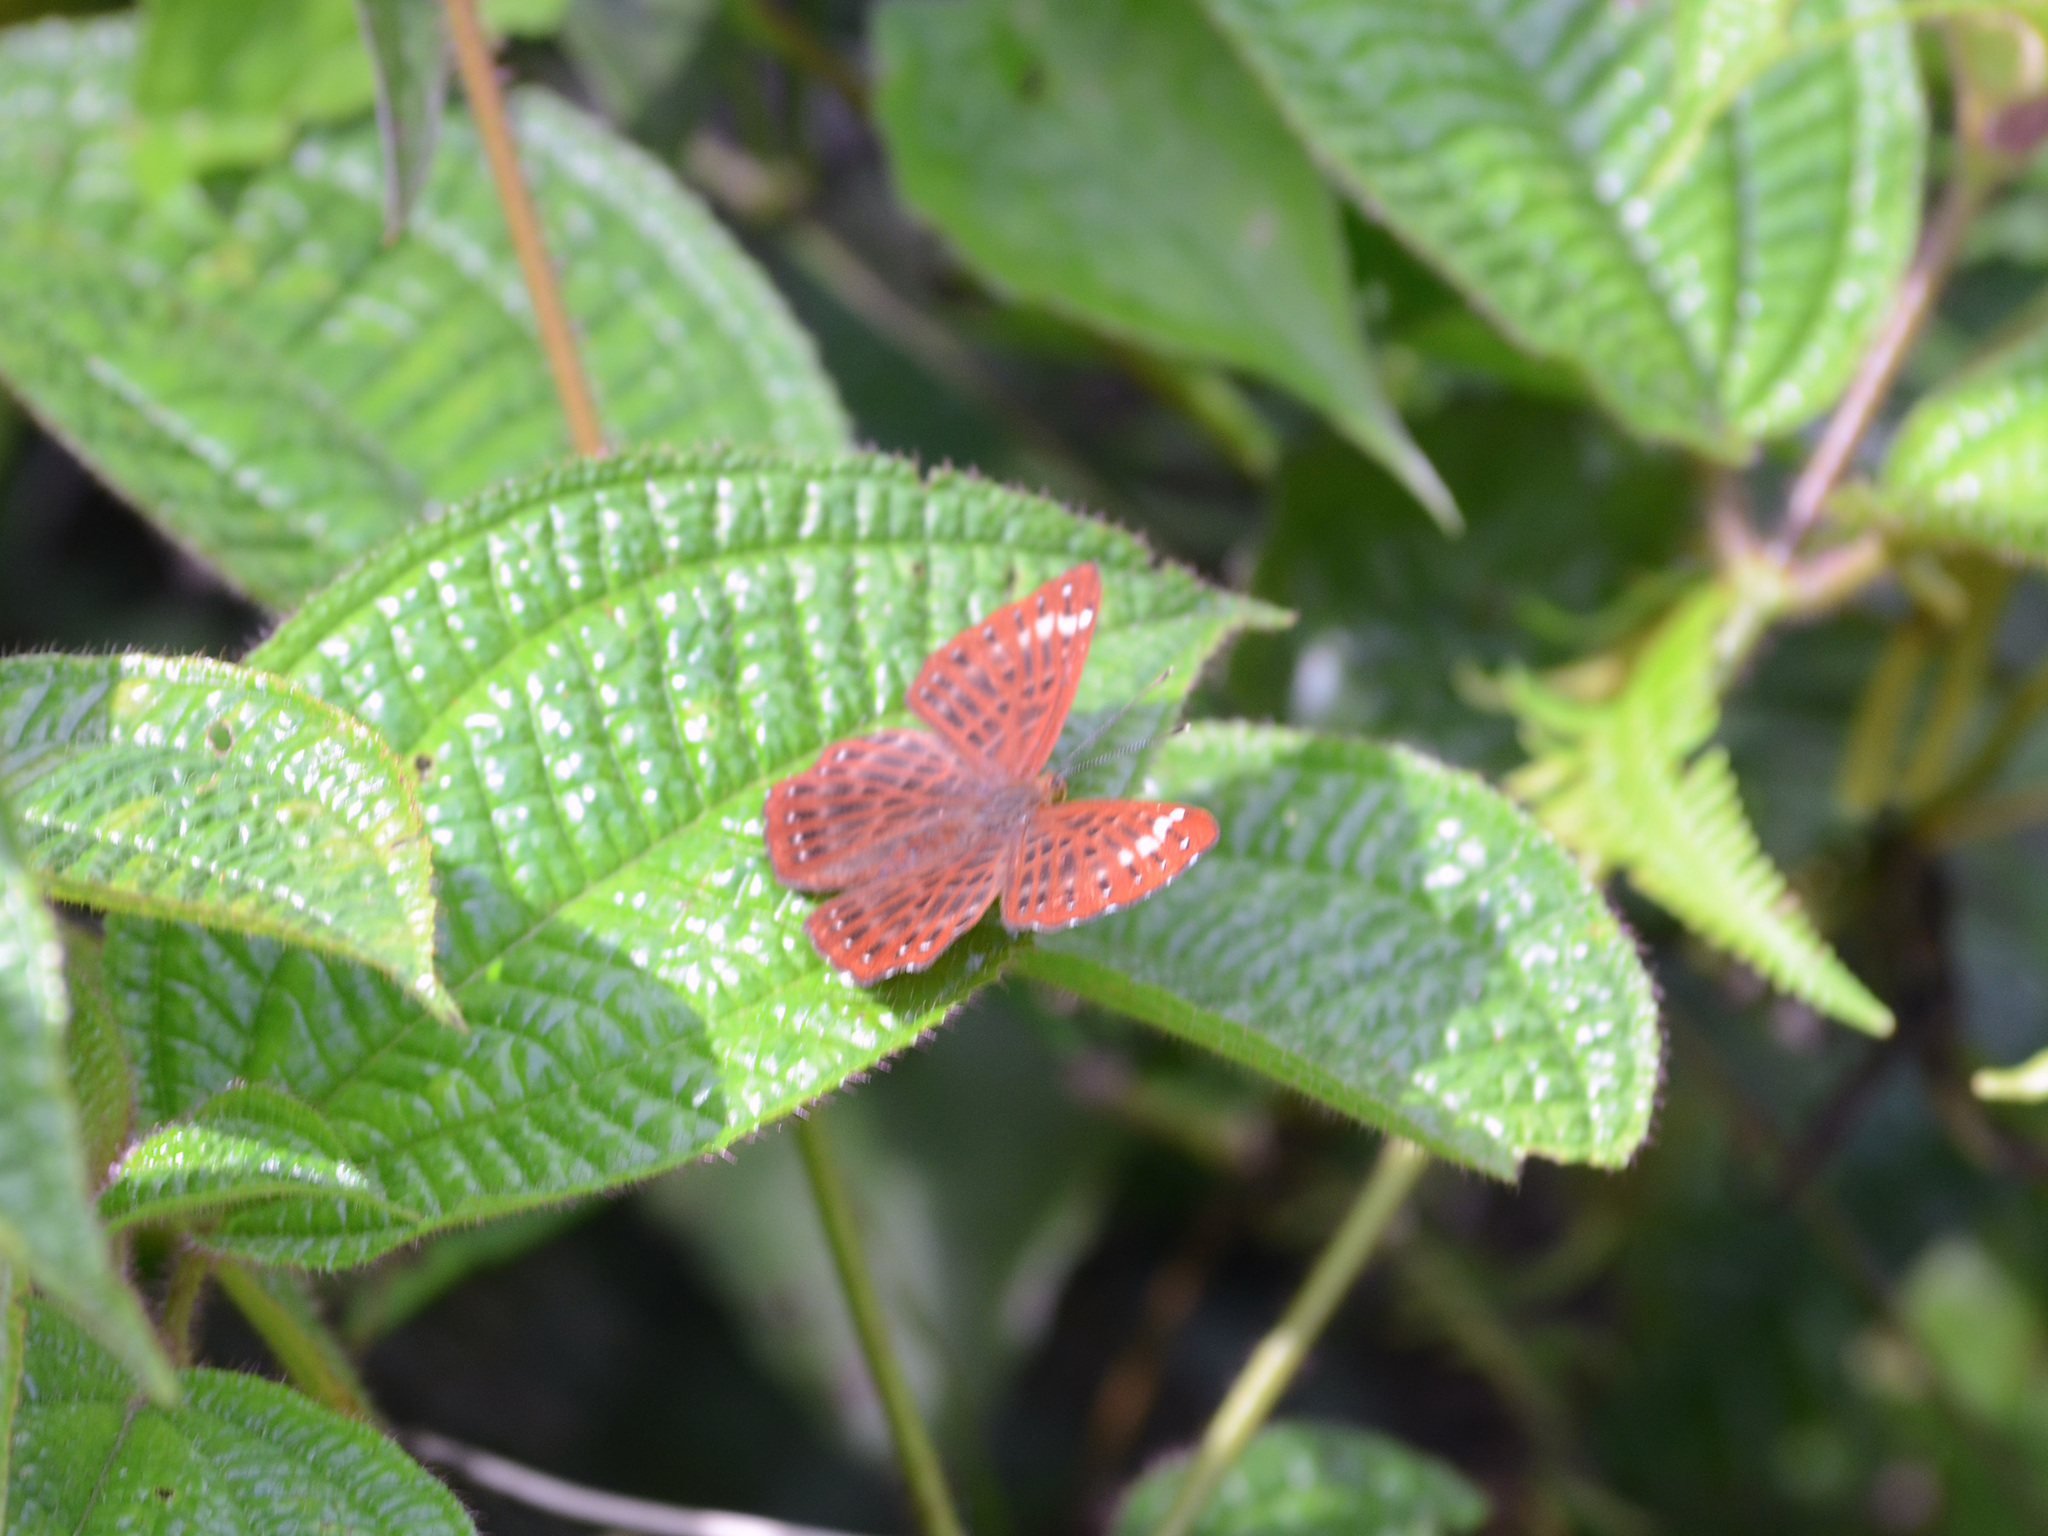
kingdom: Animalia
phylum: Arthropoda
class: Insecta
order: Lepidoptera
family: Riodinidae
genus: Zemeros
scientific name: Zemeros flegyas
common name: Punchinello
